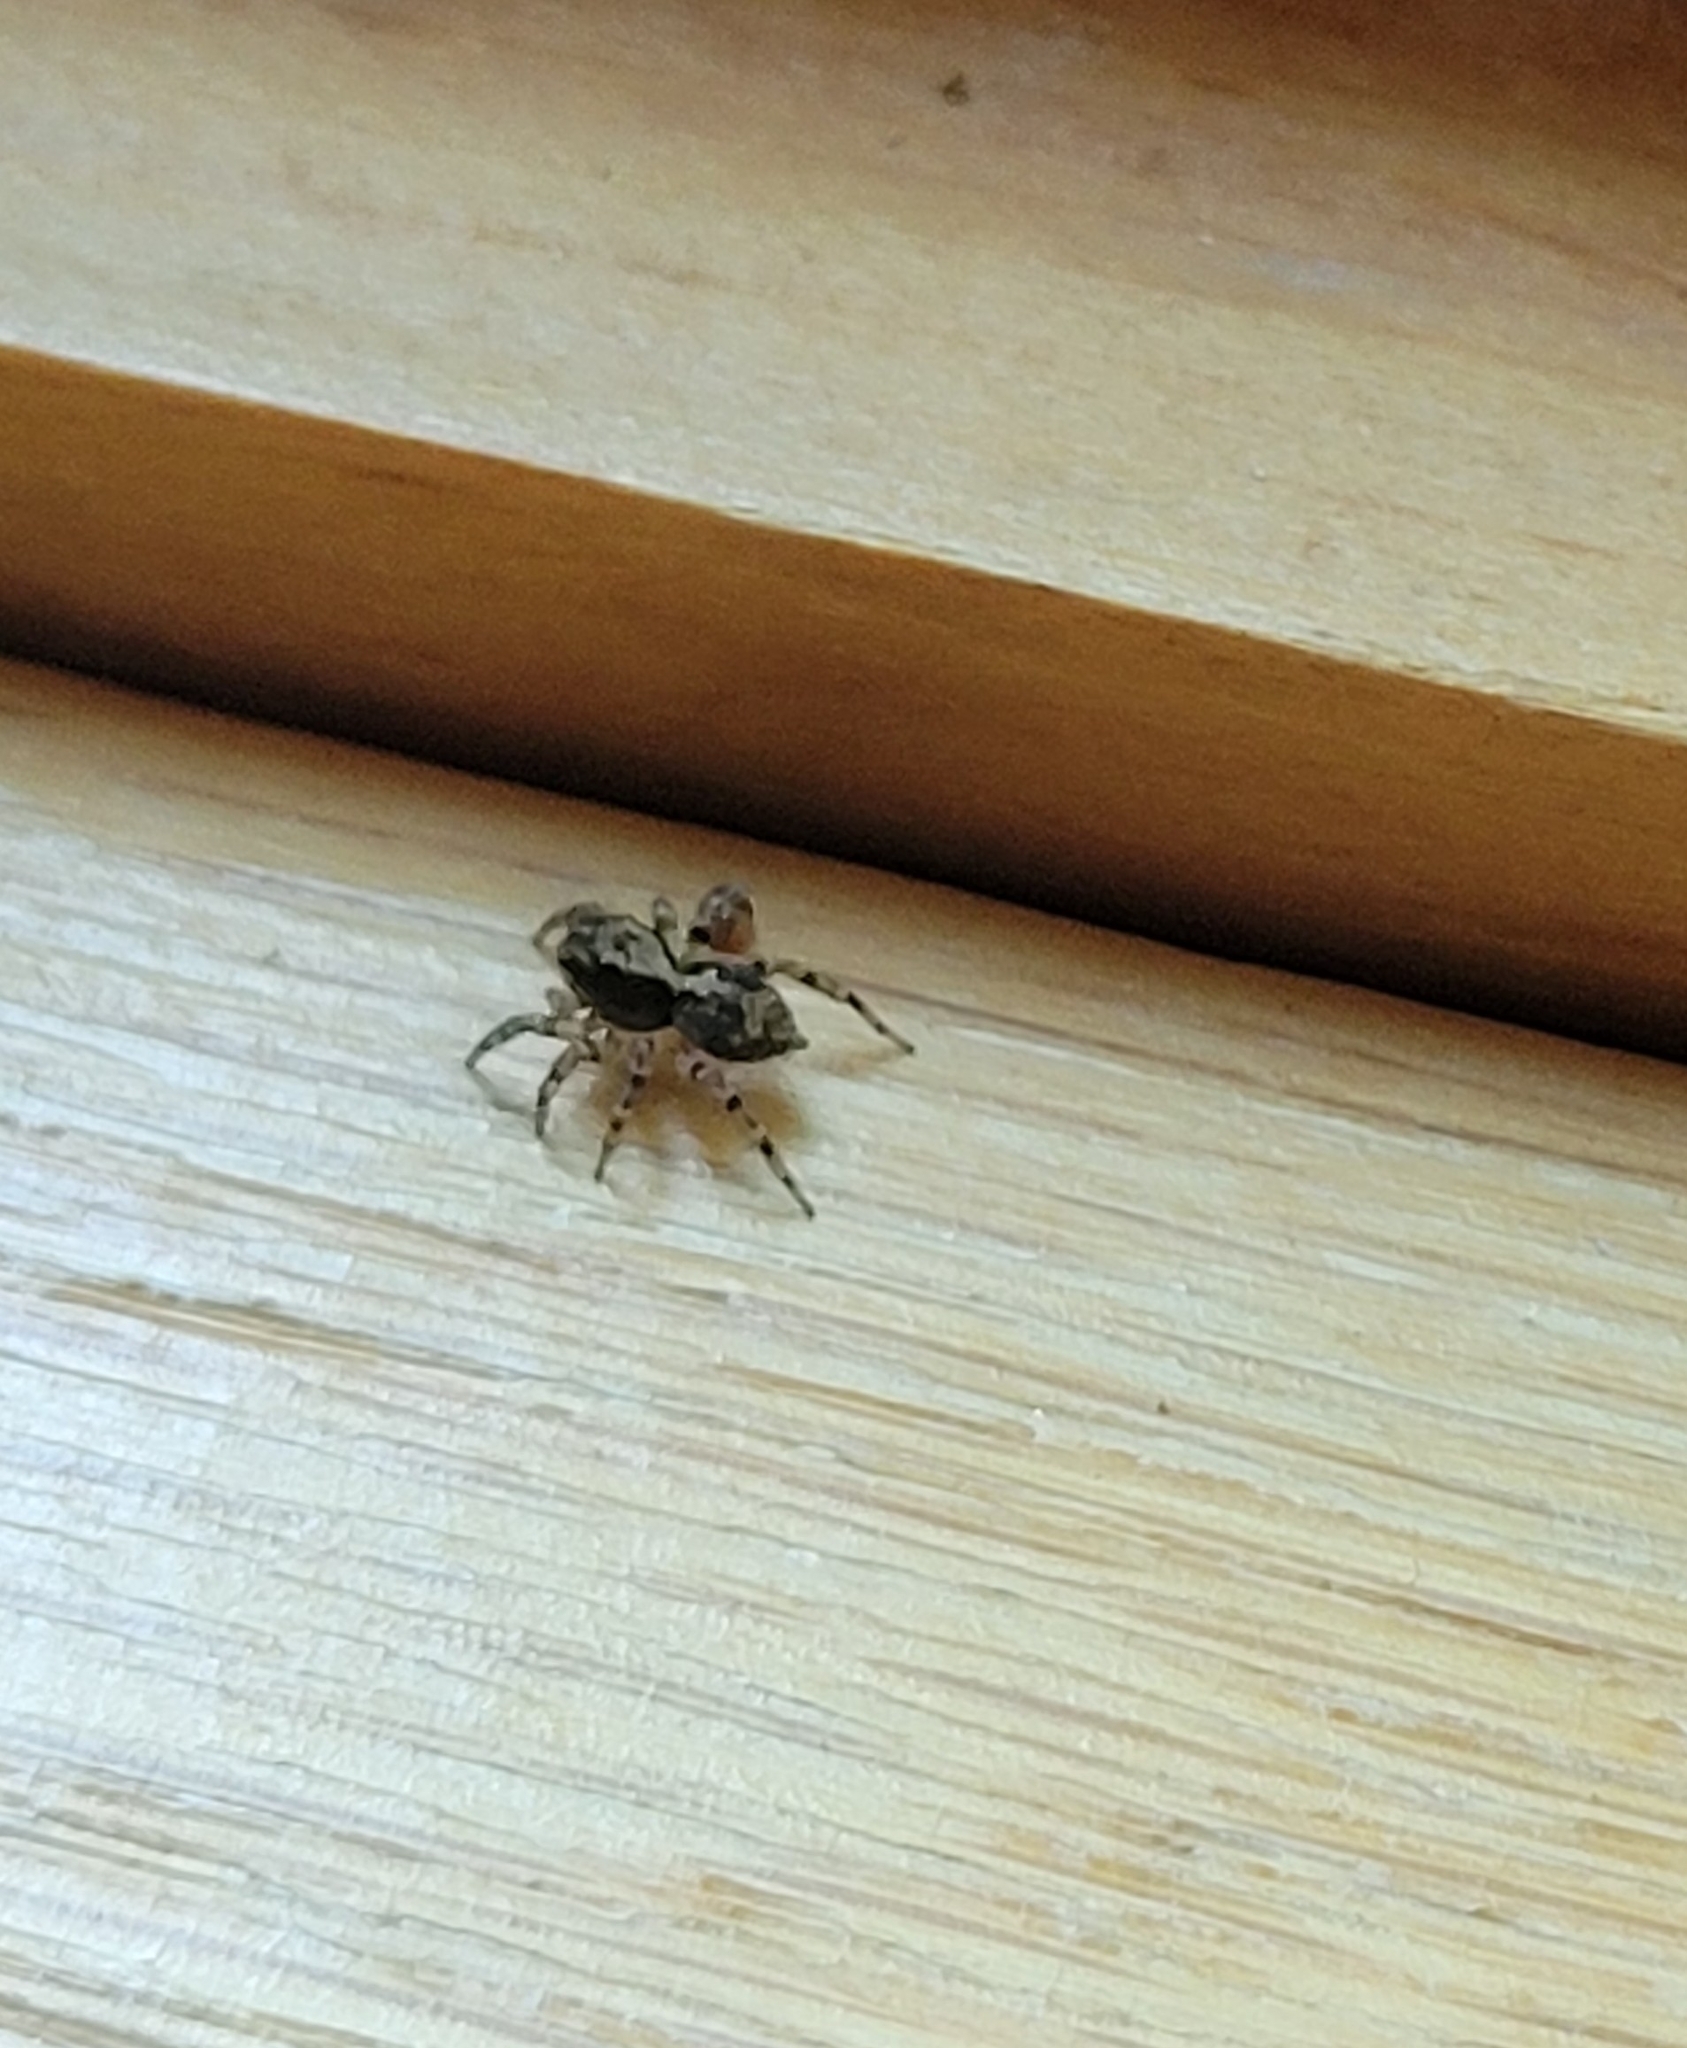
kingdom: Animalia
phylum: Arthropoda
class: Arachnida
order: Araneae
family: Salticidae
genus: Naphrys
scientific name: Naphrys pulex
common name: Flea jumping spider
